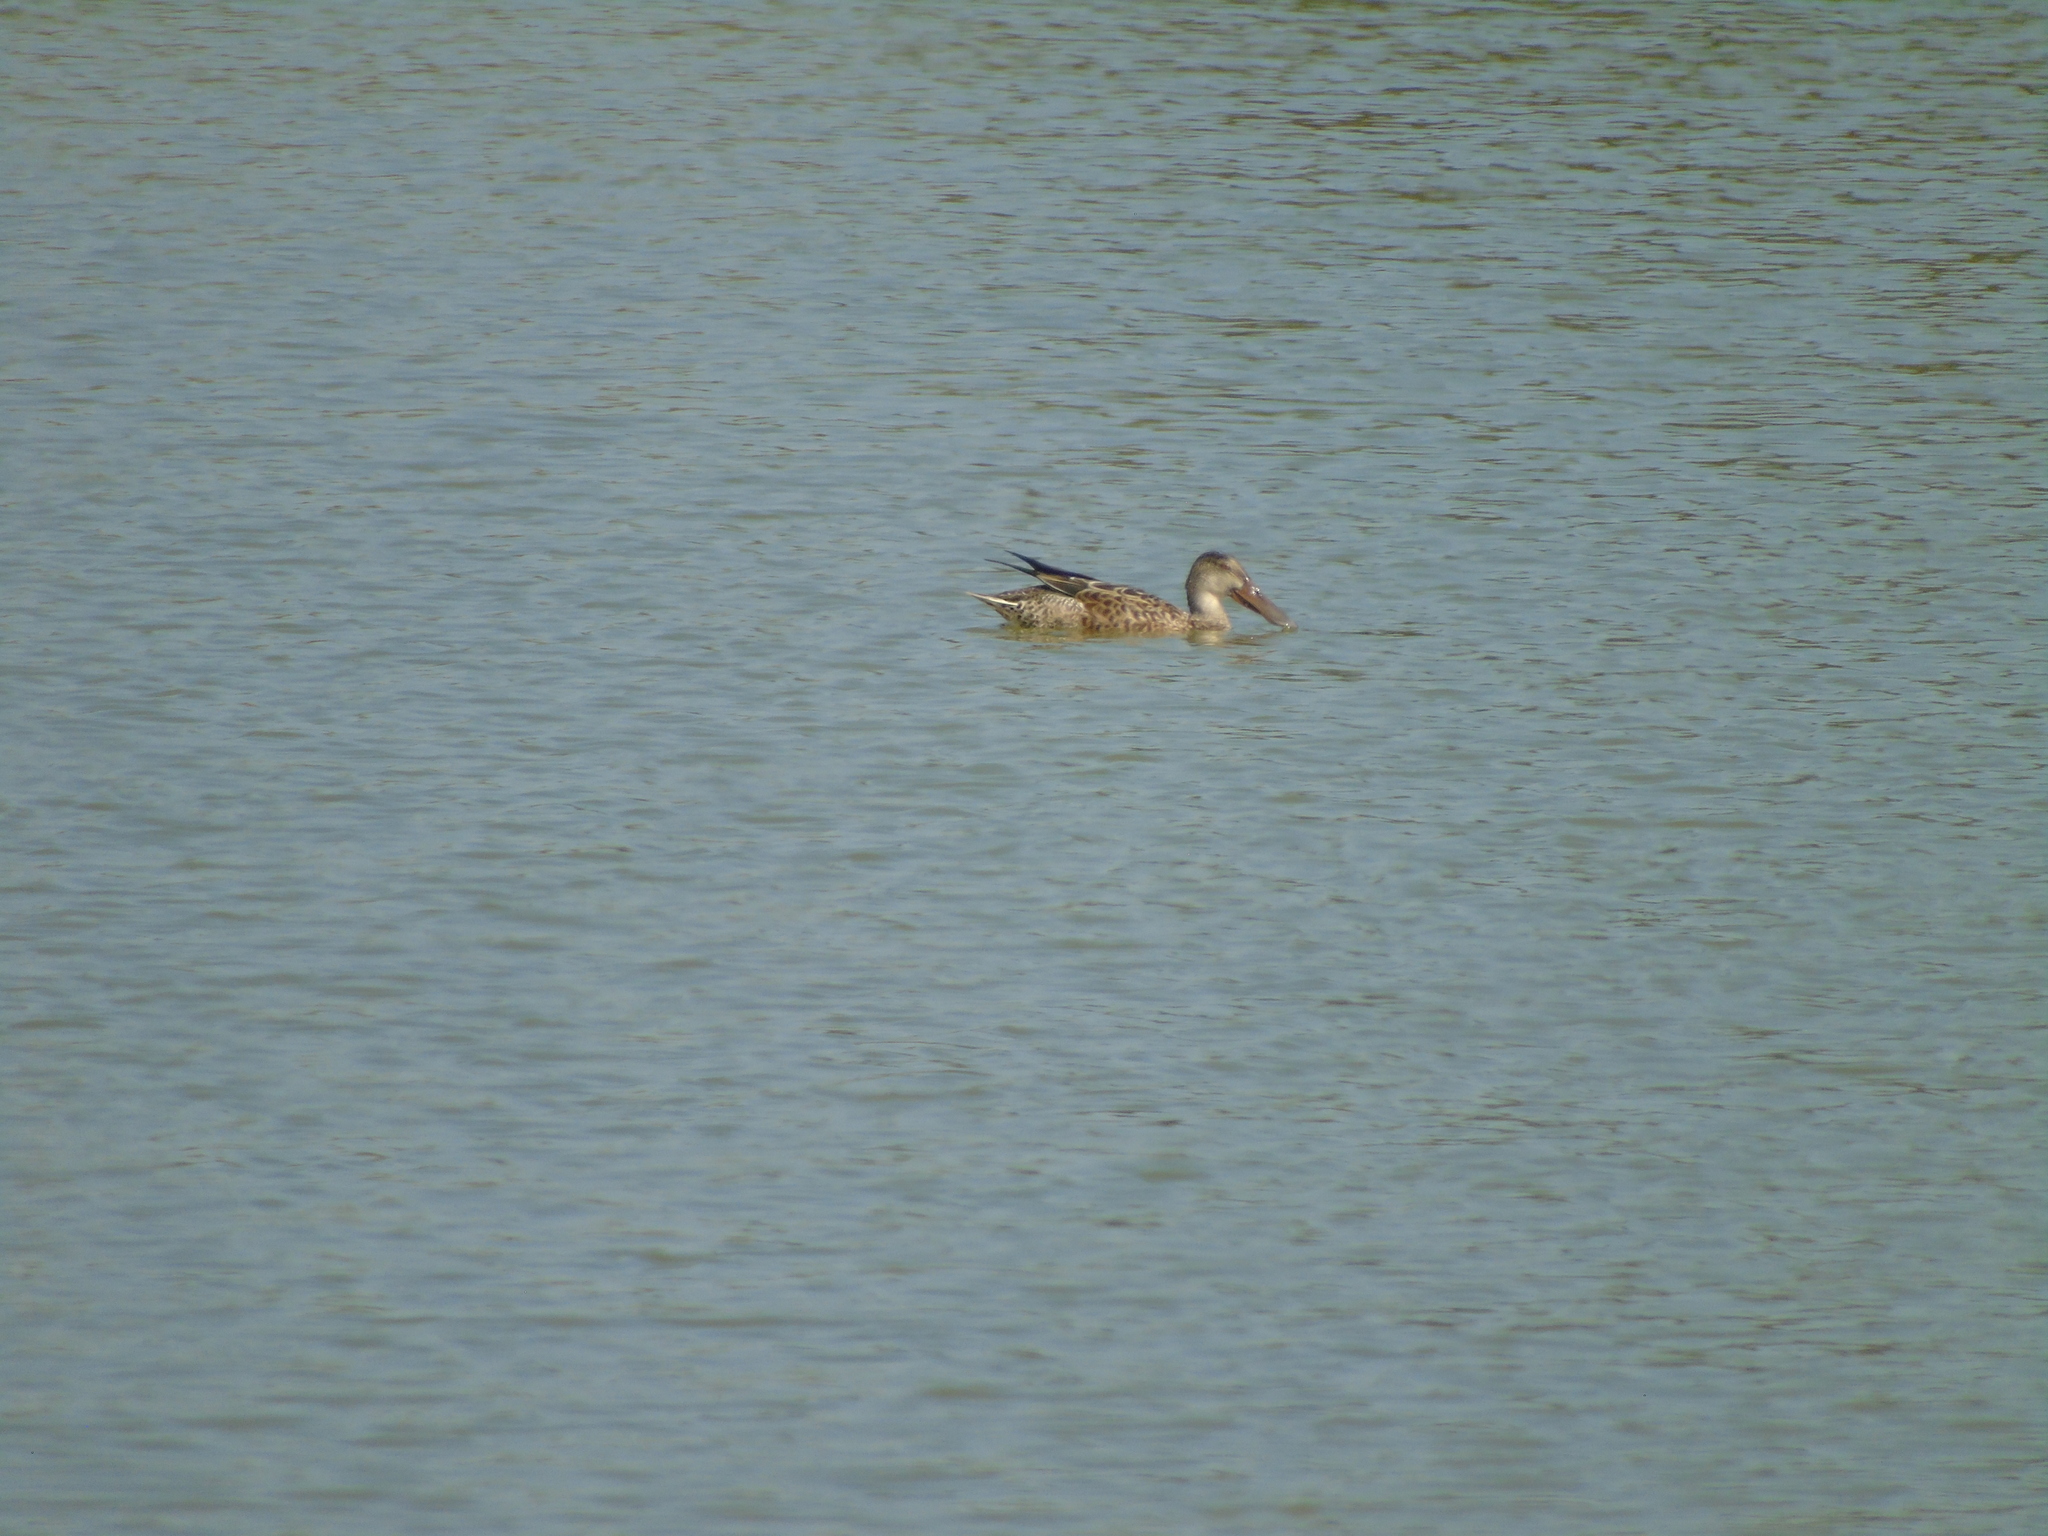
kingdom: Animalia
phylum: Chordata
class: Aves
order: Anseriformes
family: Anatidae
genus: Spatula
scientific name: Spatula clypeata
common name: Northern shoveler
